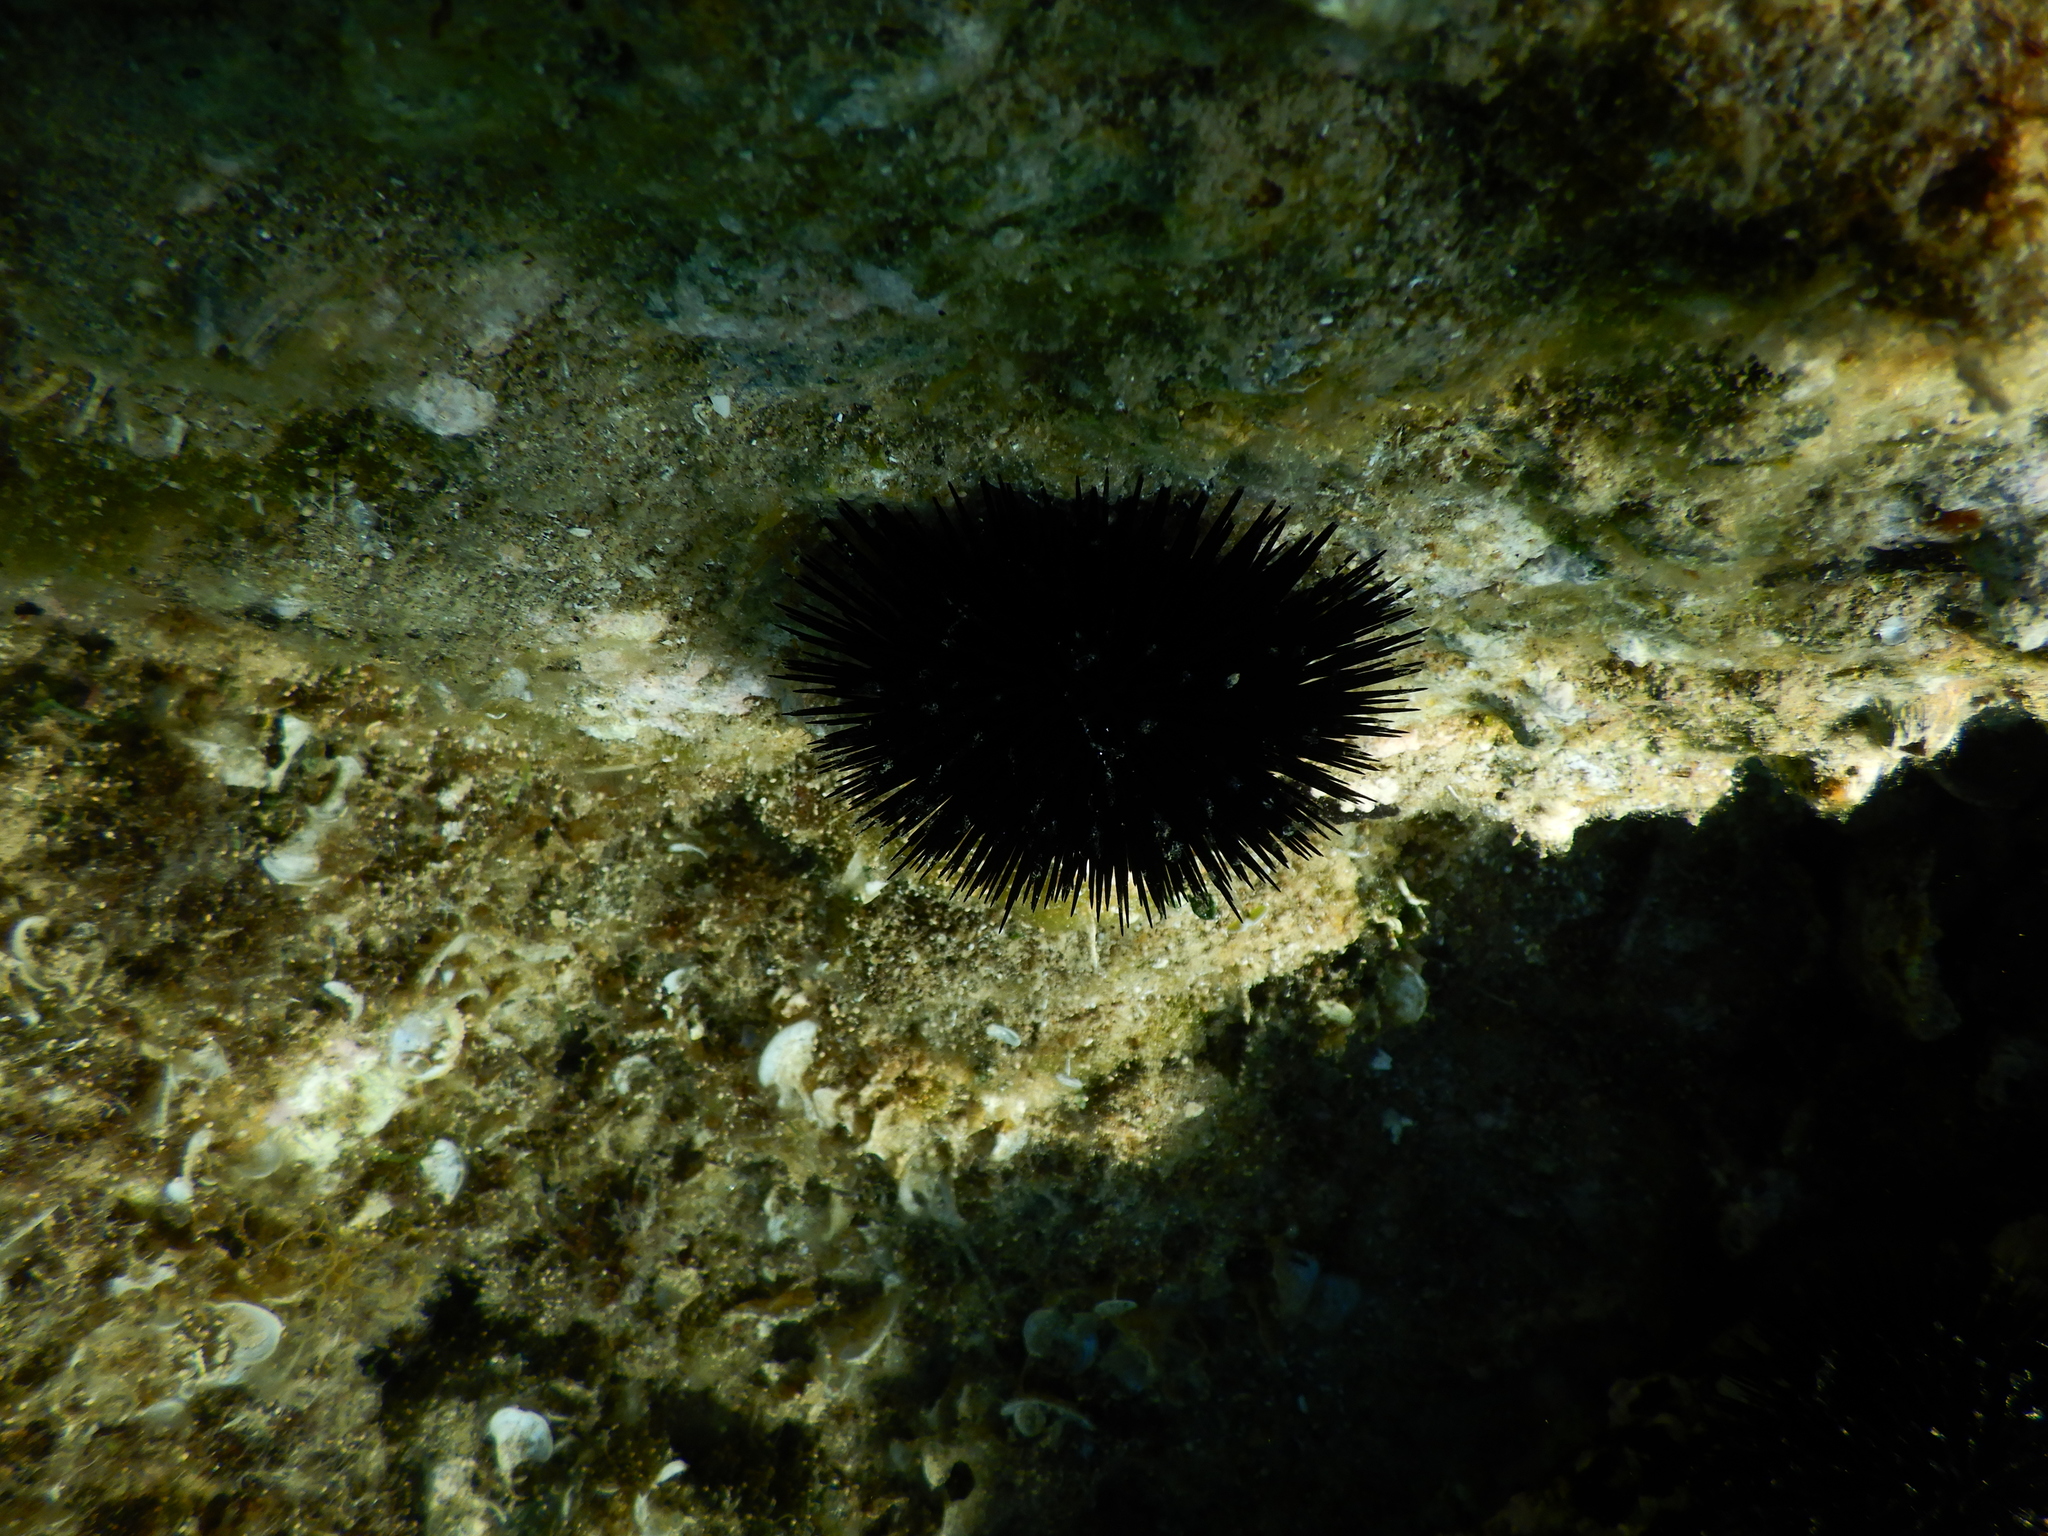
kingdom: Animalia
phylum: Echinodermata
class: Echinoidea
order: Arbacioida
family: Arbaciidae
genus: Arbacia
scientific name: Arbacia lixula
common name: Black sea urchin
